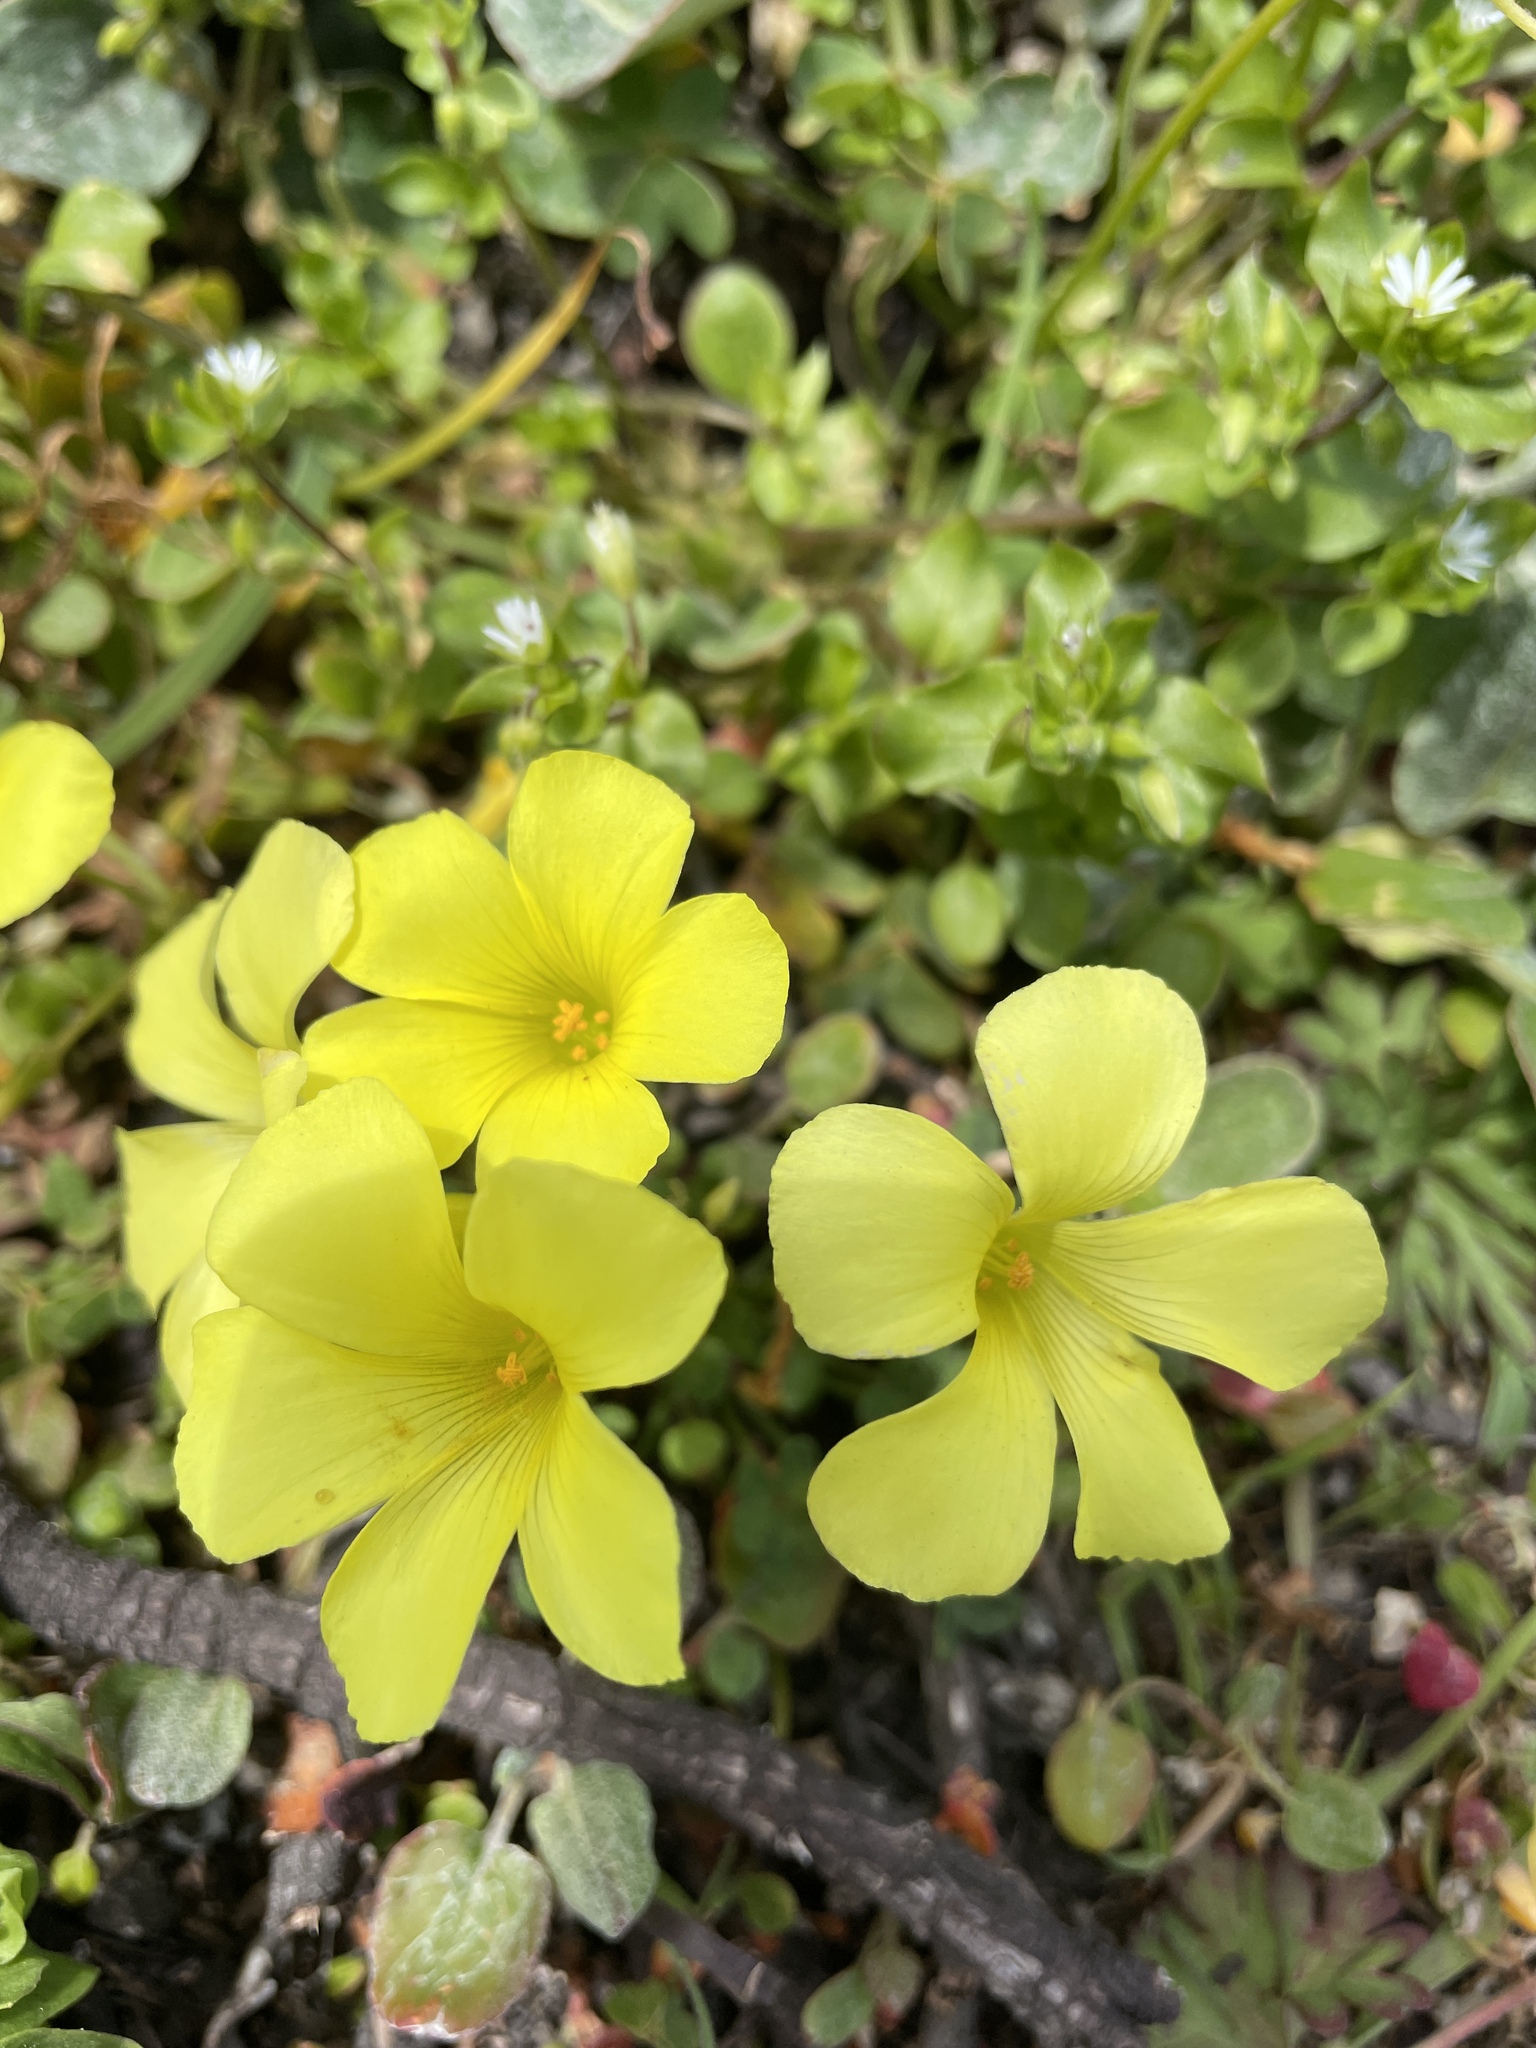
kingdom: Plantae
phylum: Tracheophyta
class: Magnoliopsida
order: Oxalidales
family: Oxalidaceae
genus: Oxalis
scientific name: Oxalis pes-caprae
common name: Bermuda-buttercup
